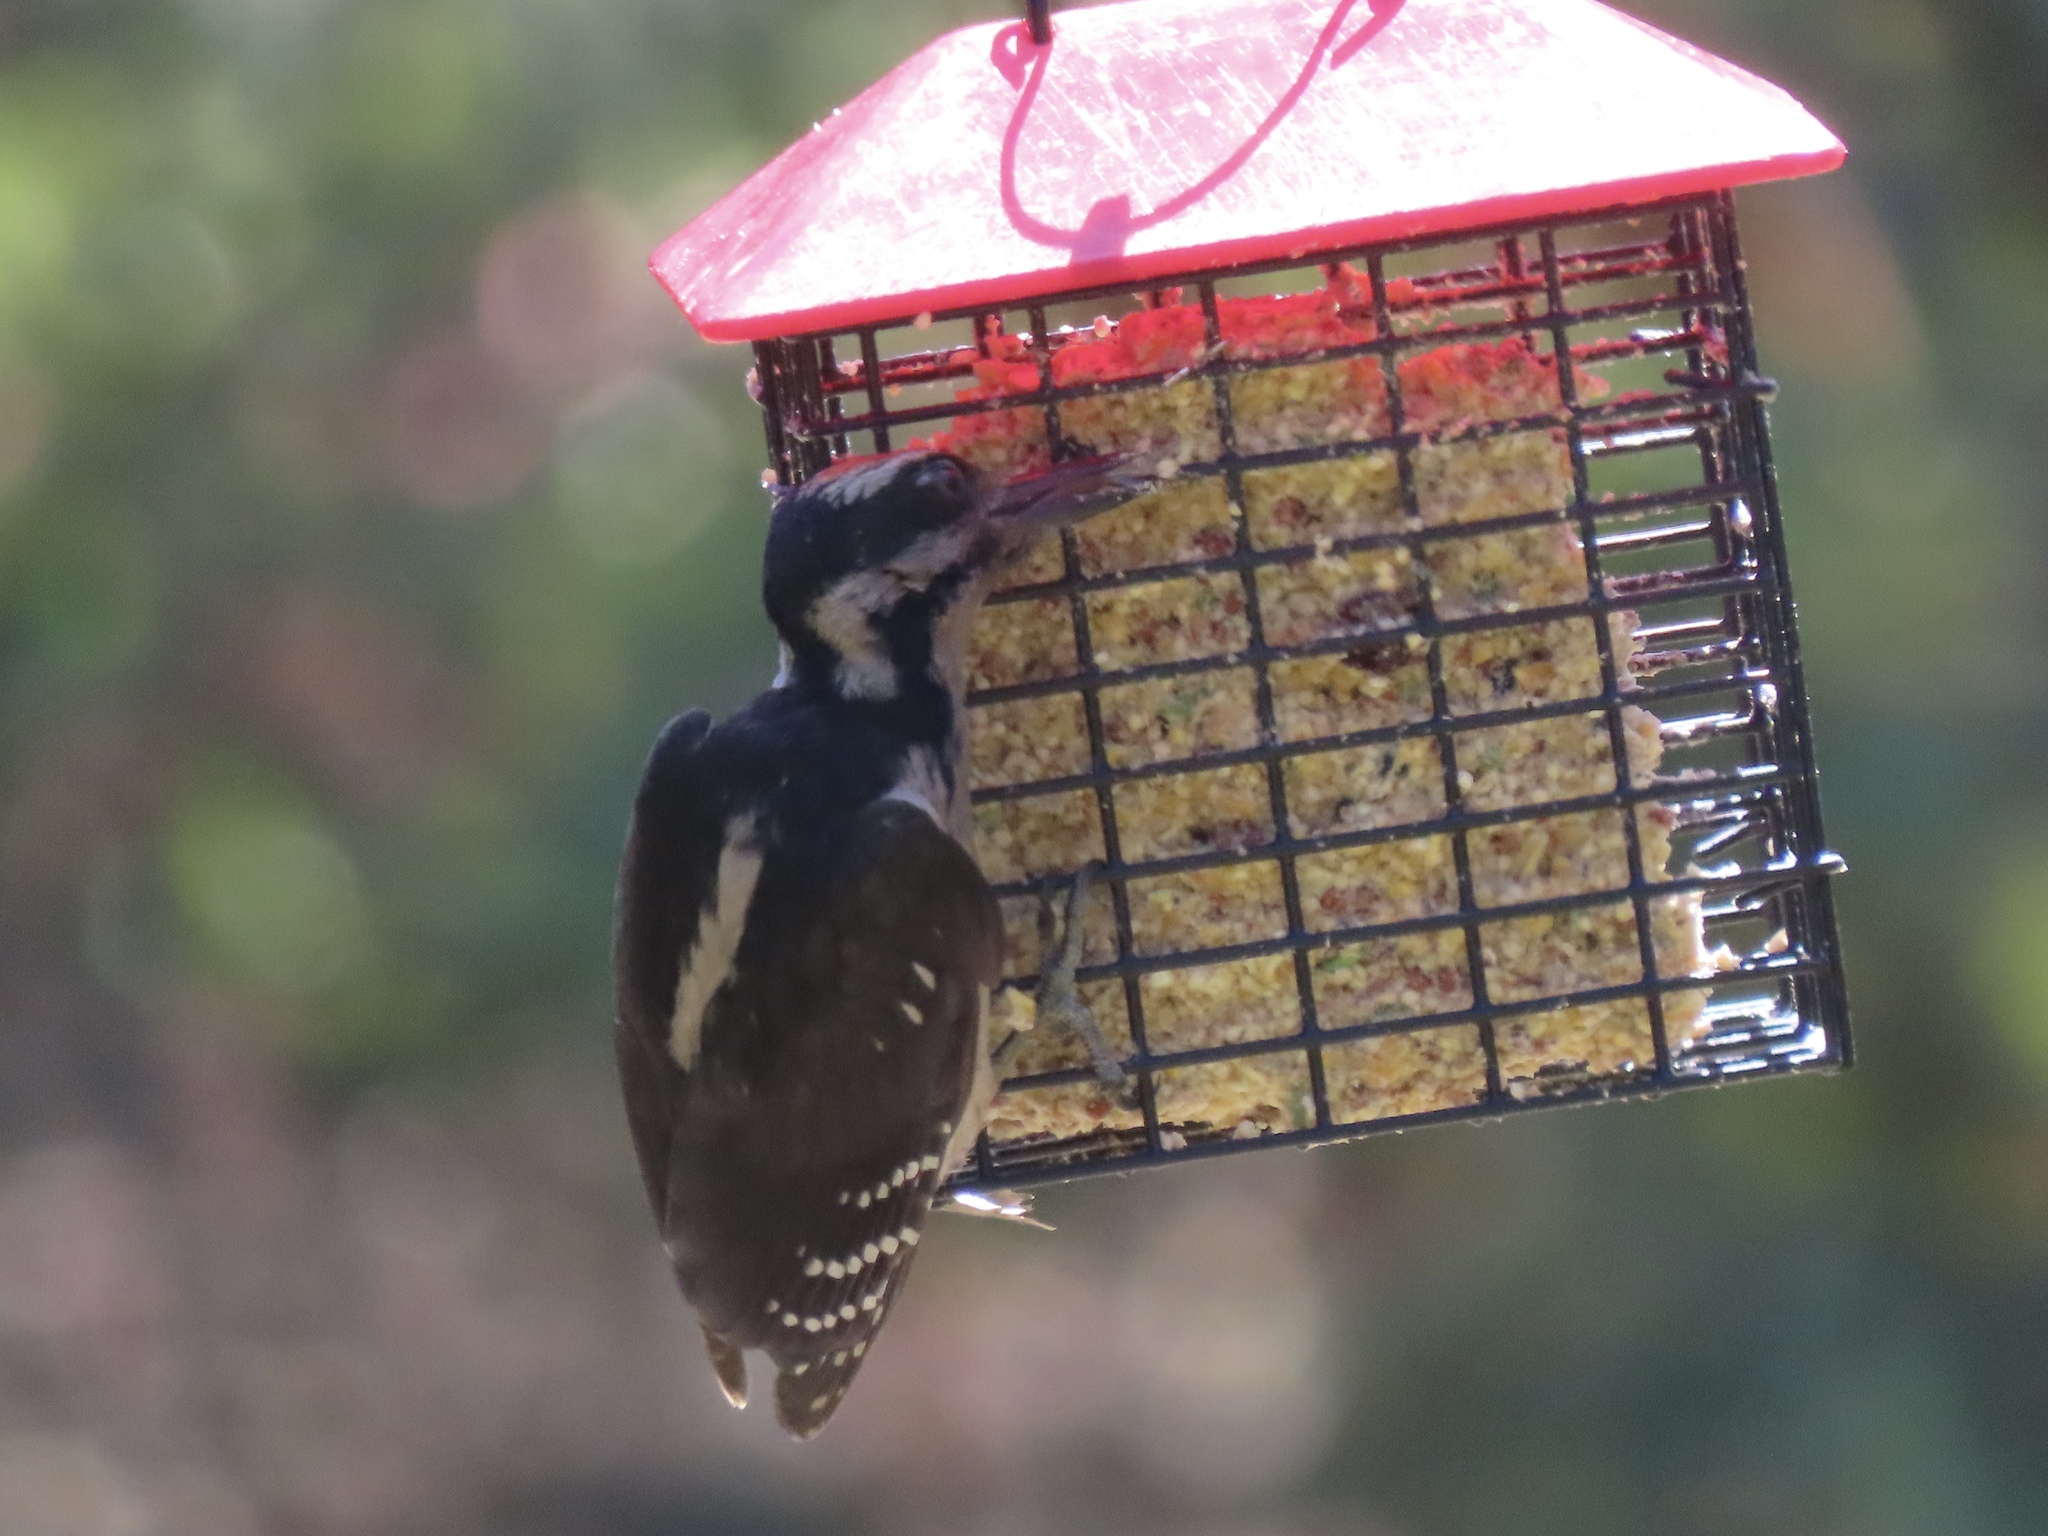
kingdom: Animalia
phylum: Chordata
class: Aves
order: Piciformes
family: Picidae
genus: Leuconotopicus
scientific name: Leuconotopicus villosus
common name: Hairy woodpecker
